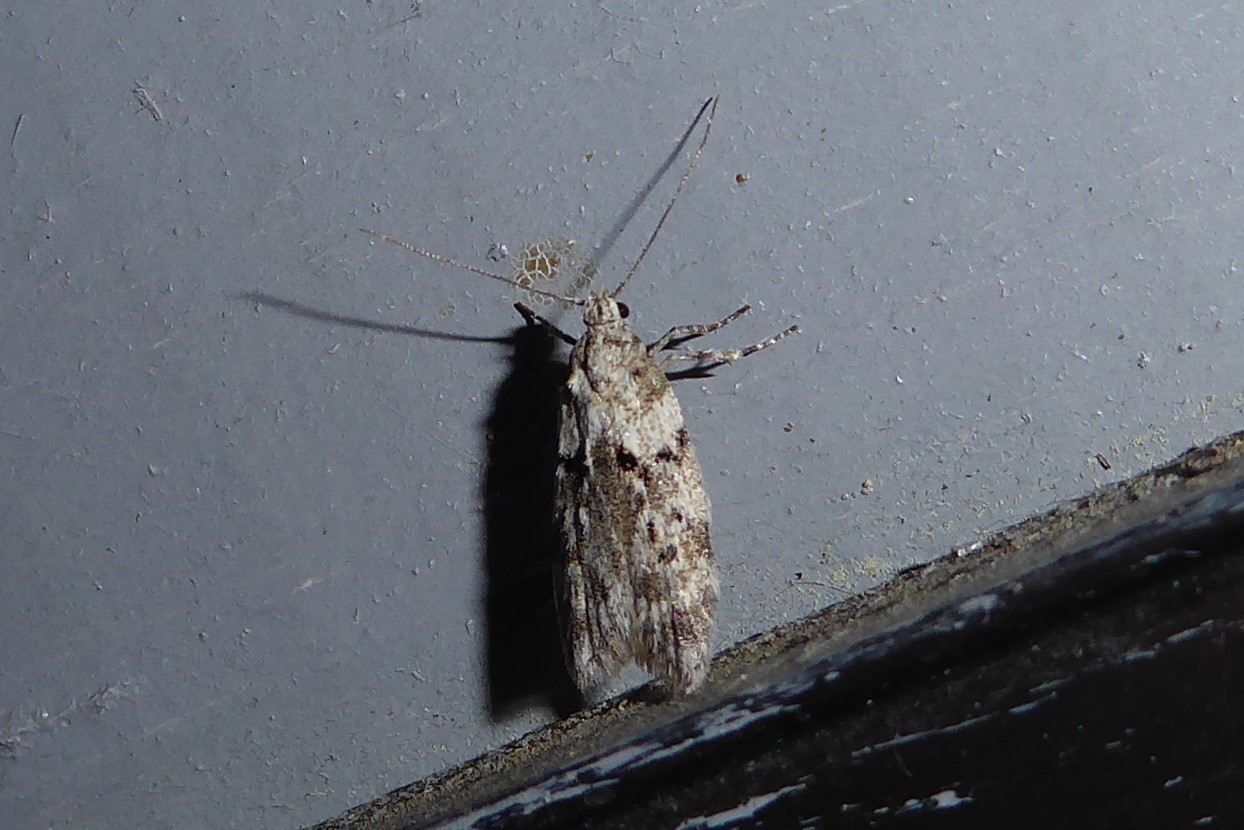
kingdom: Animalia
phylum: Arthropoda
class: Insecta
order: Lepidoptera
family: Oecophoridae
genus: Izatha
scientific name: Izatha convulsella
